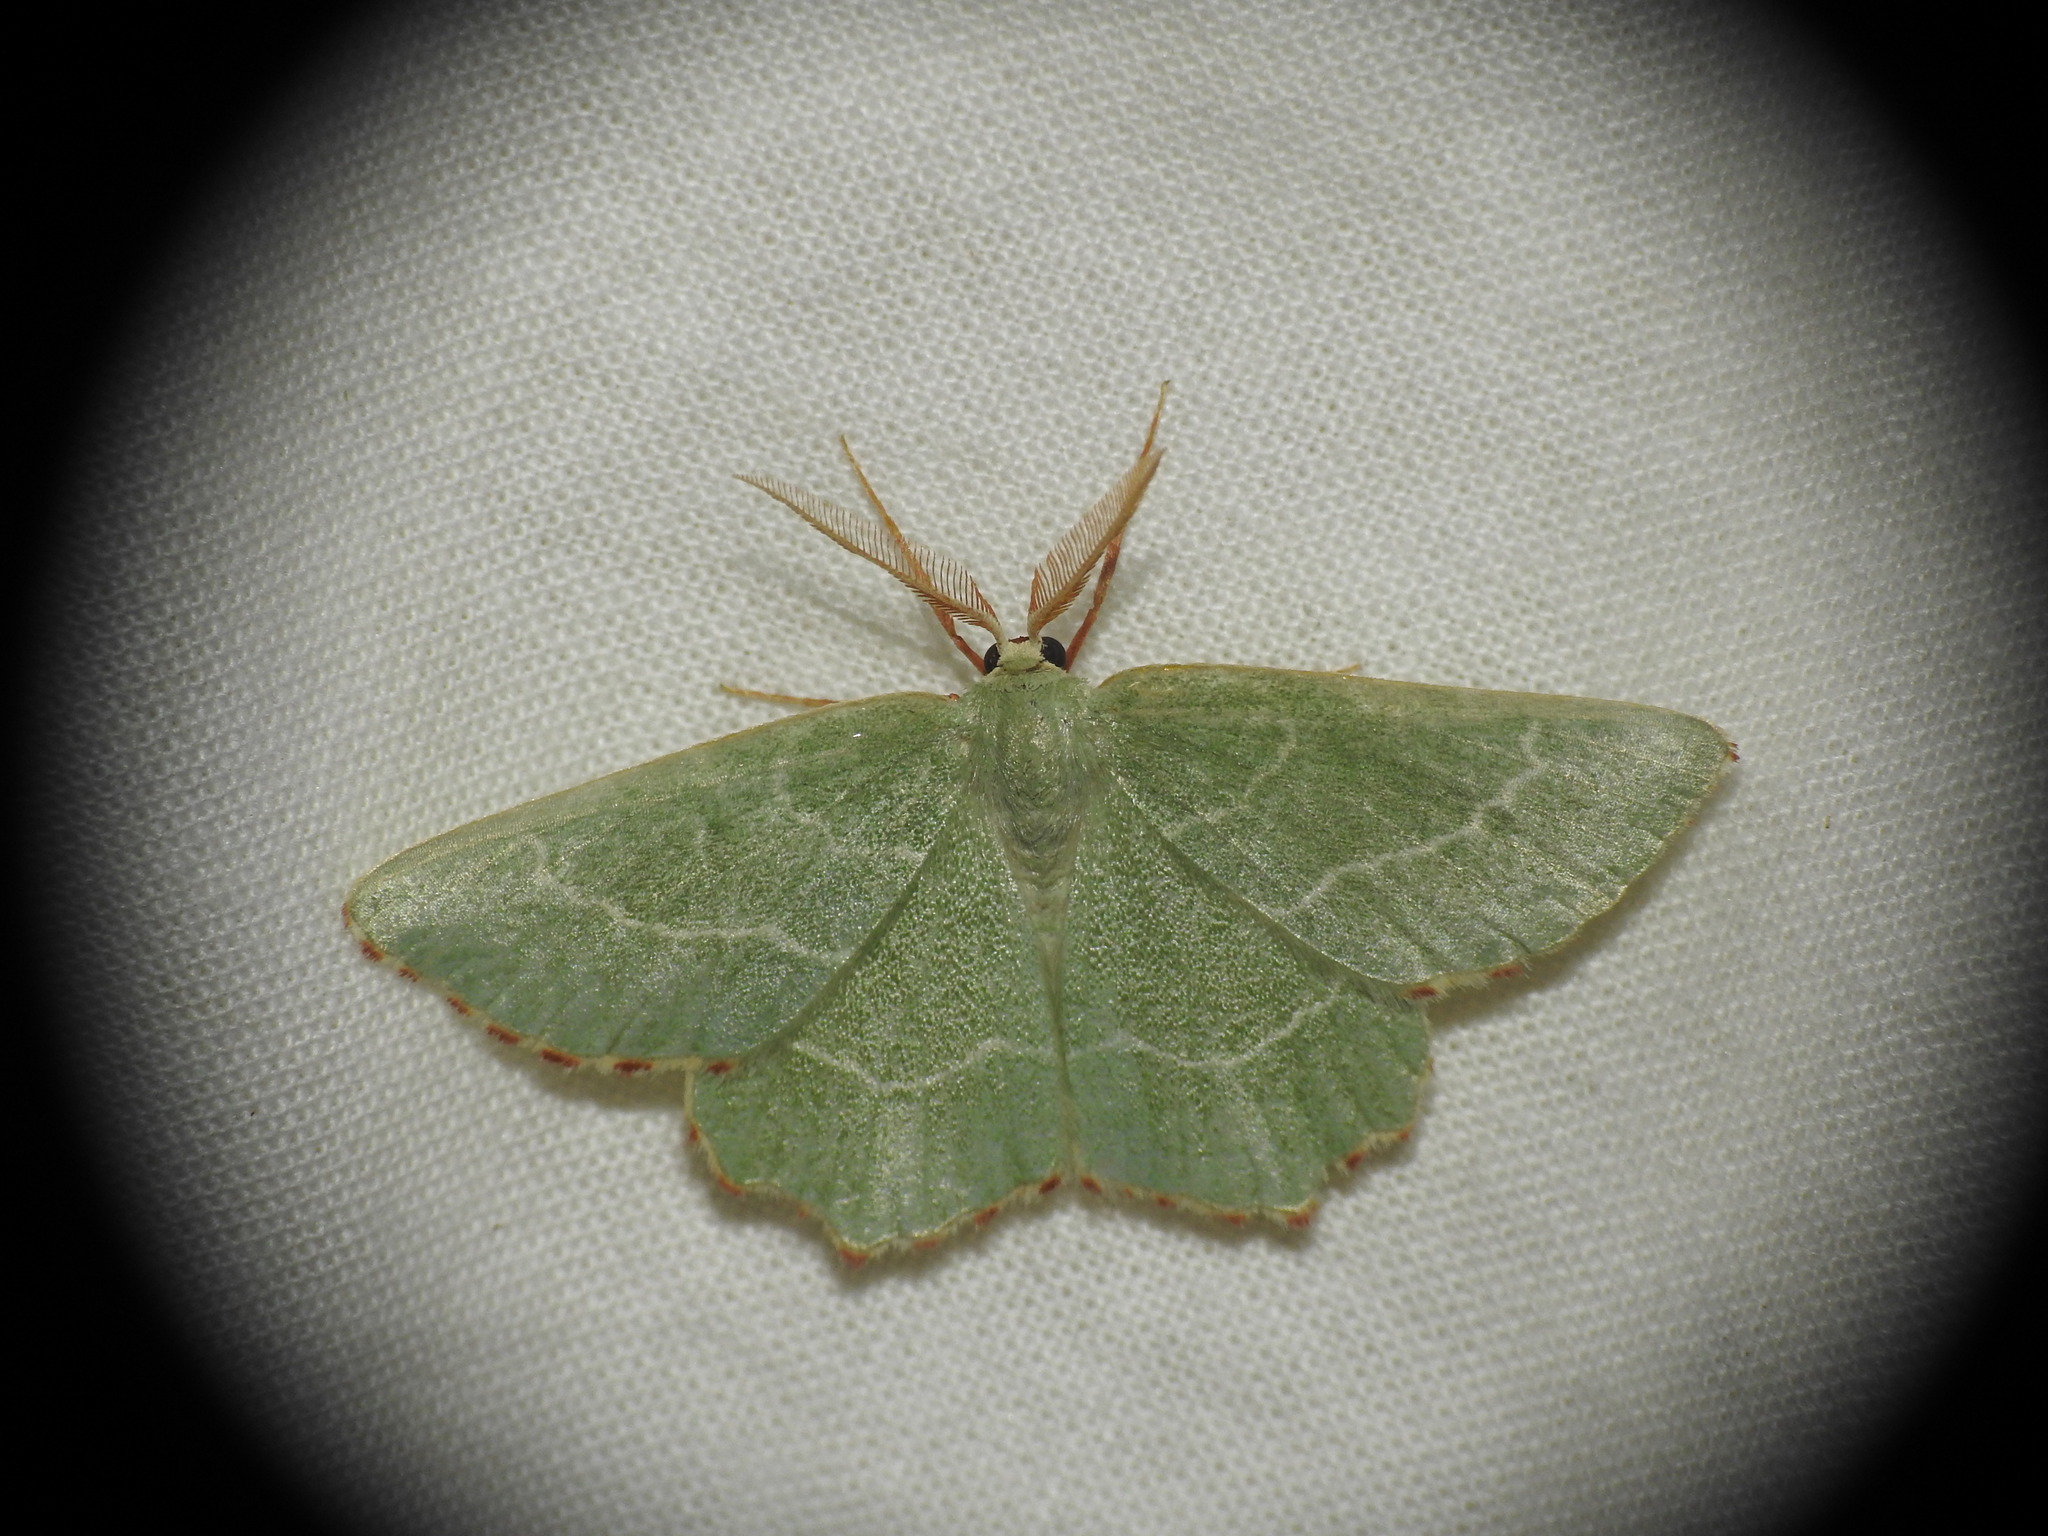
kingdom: Animalia
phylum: Arthropoda
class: Insecta
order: Lepidoptera
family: Geometridae
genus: Thalera
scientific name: Thalera fimbrialis
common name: Sussex emerald
